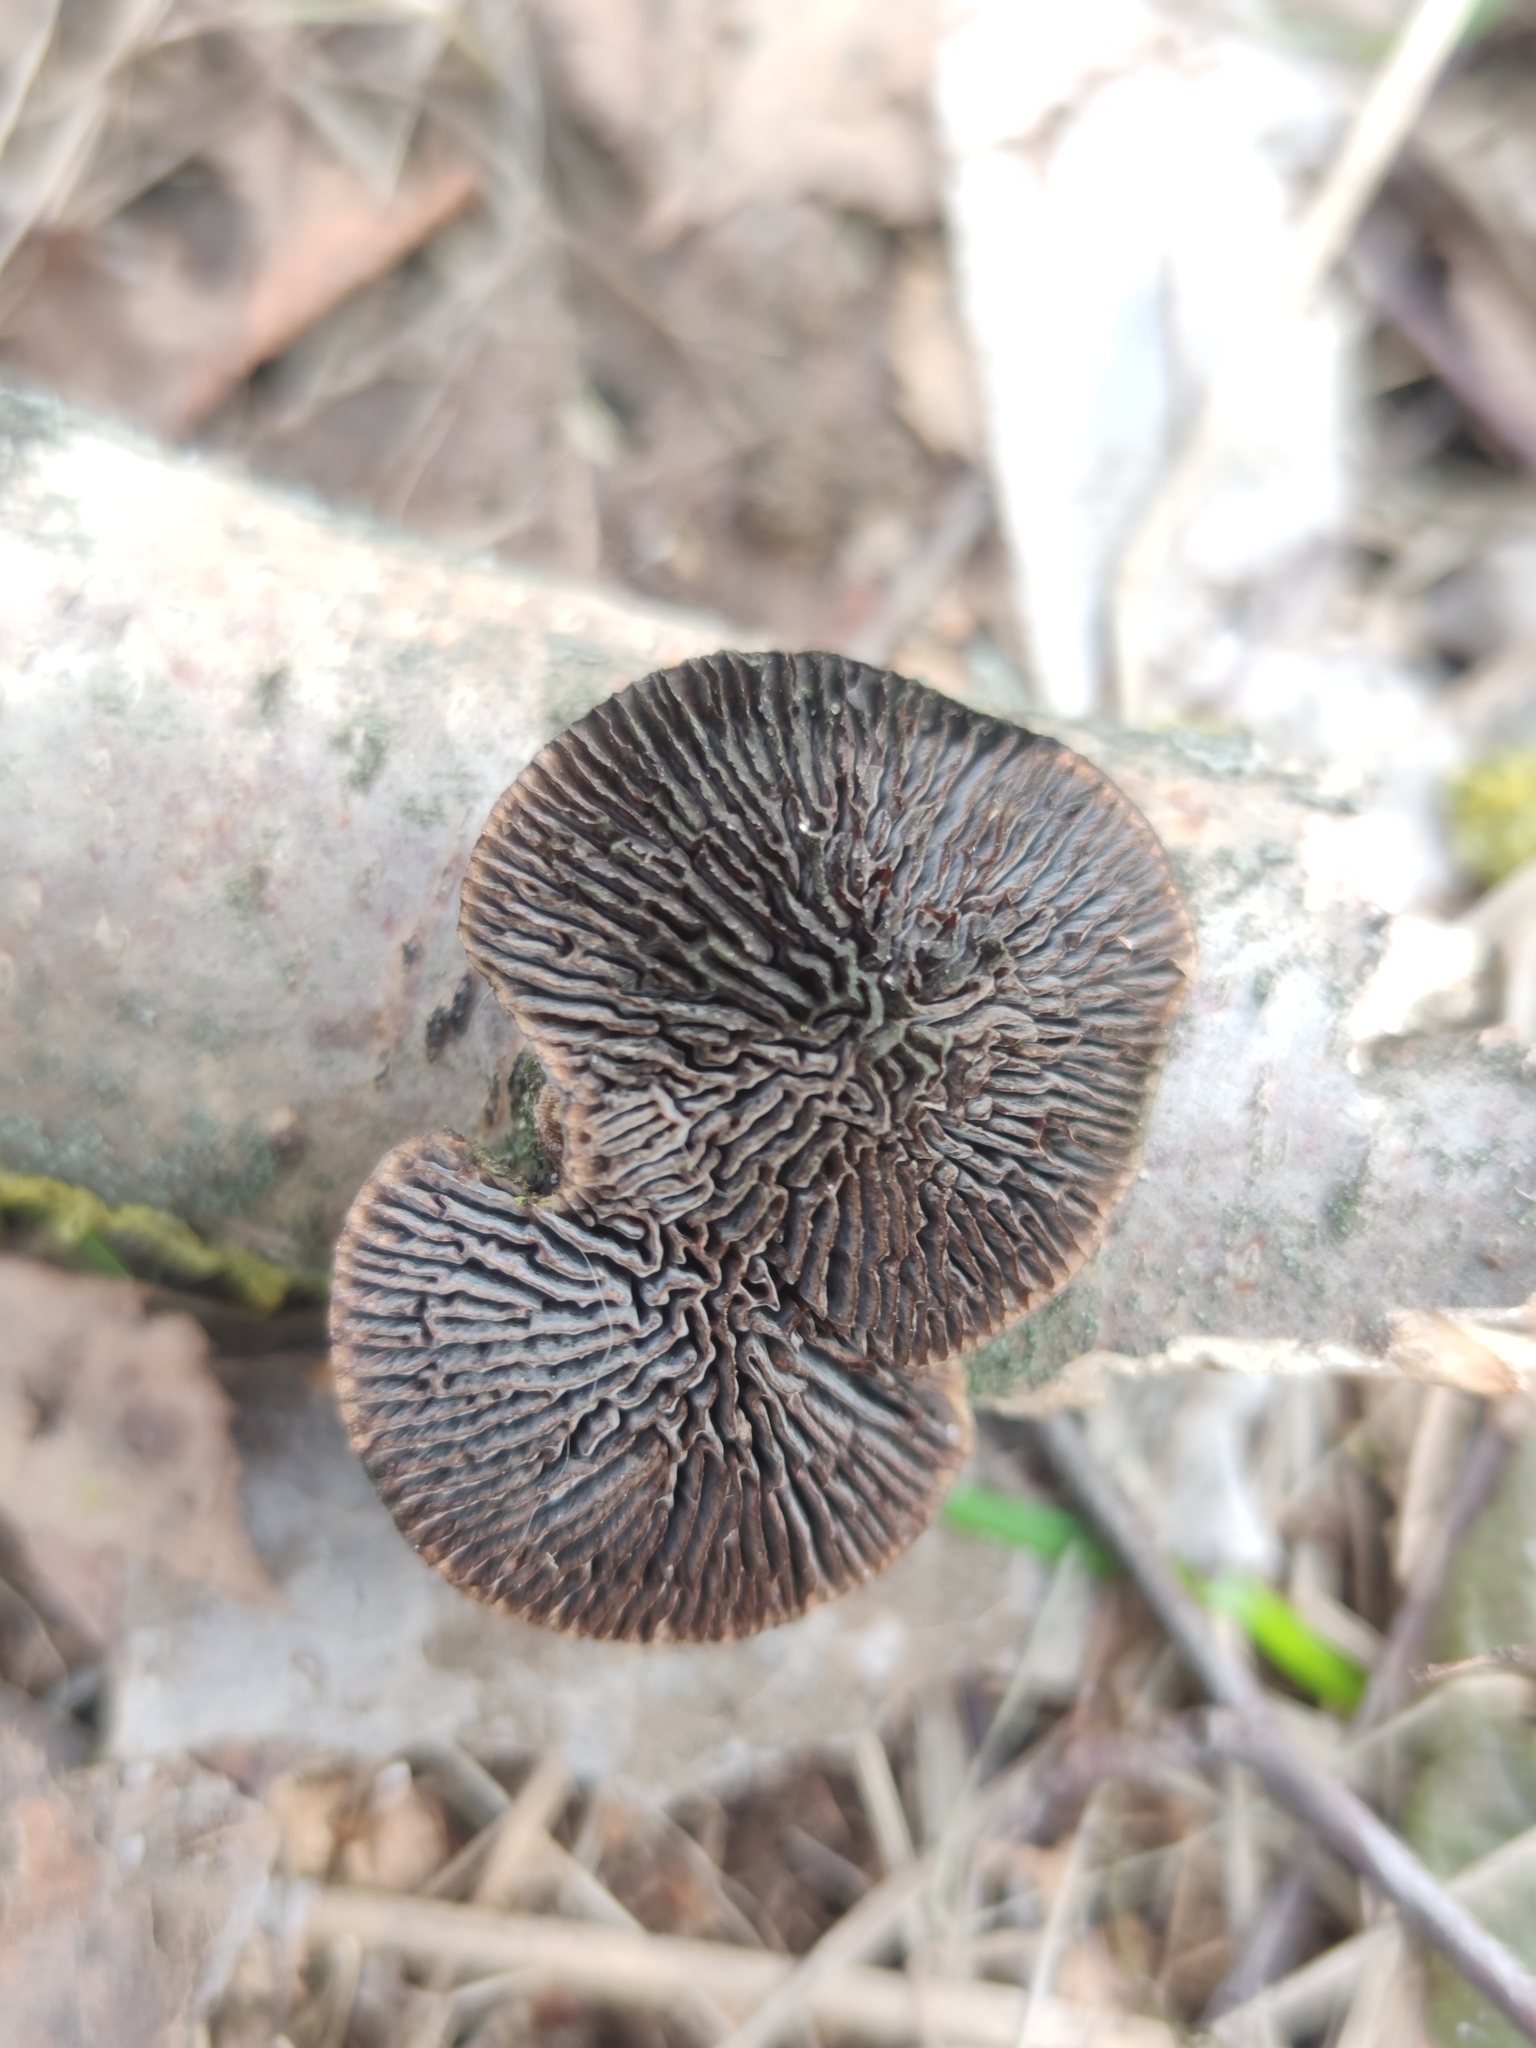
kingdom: Fungi
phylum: Basidiomycota
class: Agaricomycetes
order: Polyporales
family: Polyporaceae
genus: Daedaleopsis
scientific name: Daedaleopsis tricolor
